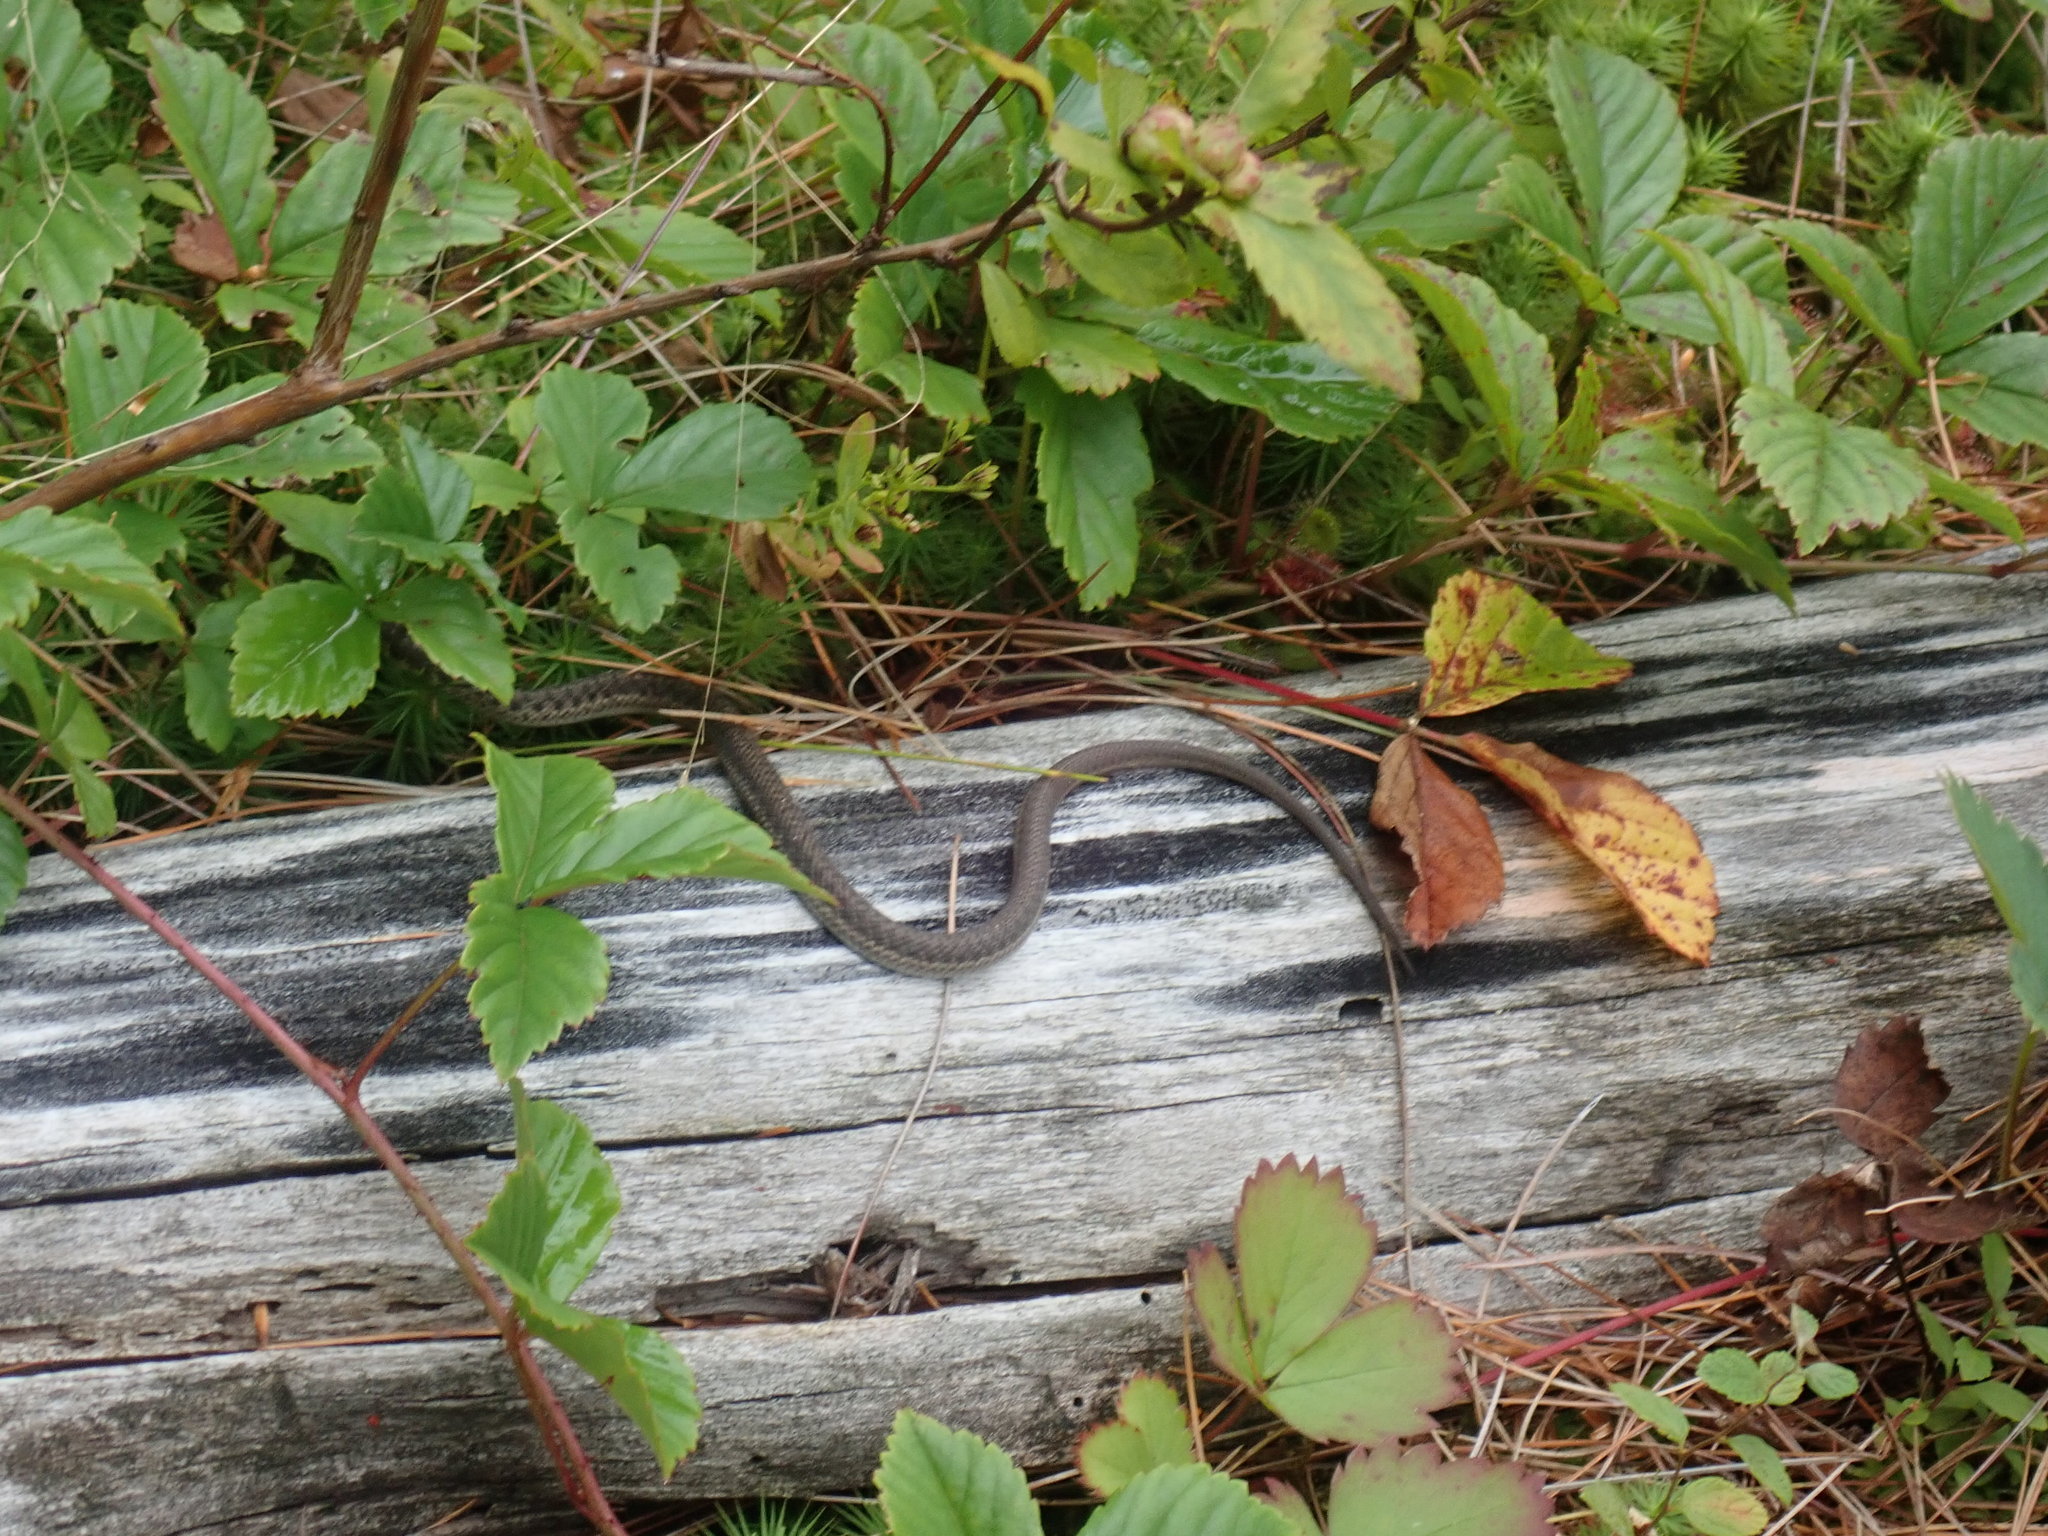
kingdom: Animalia
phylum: Chordata
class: Squamata
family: Colubridae
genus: Thamnophis
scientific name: Thamnophis sirtalis
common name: Common garter snake
